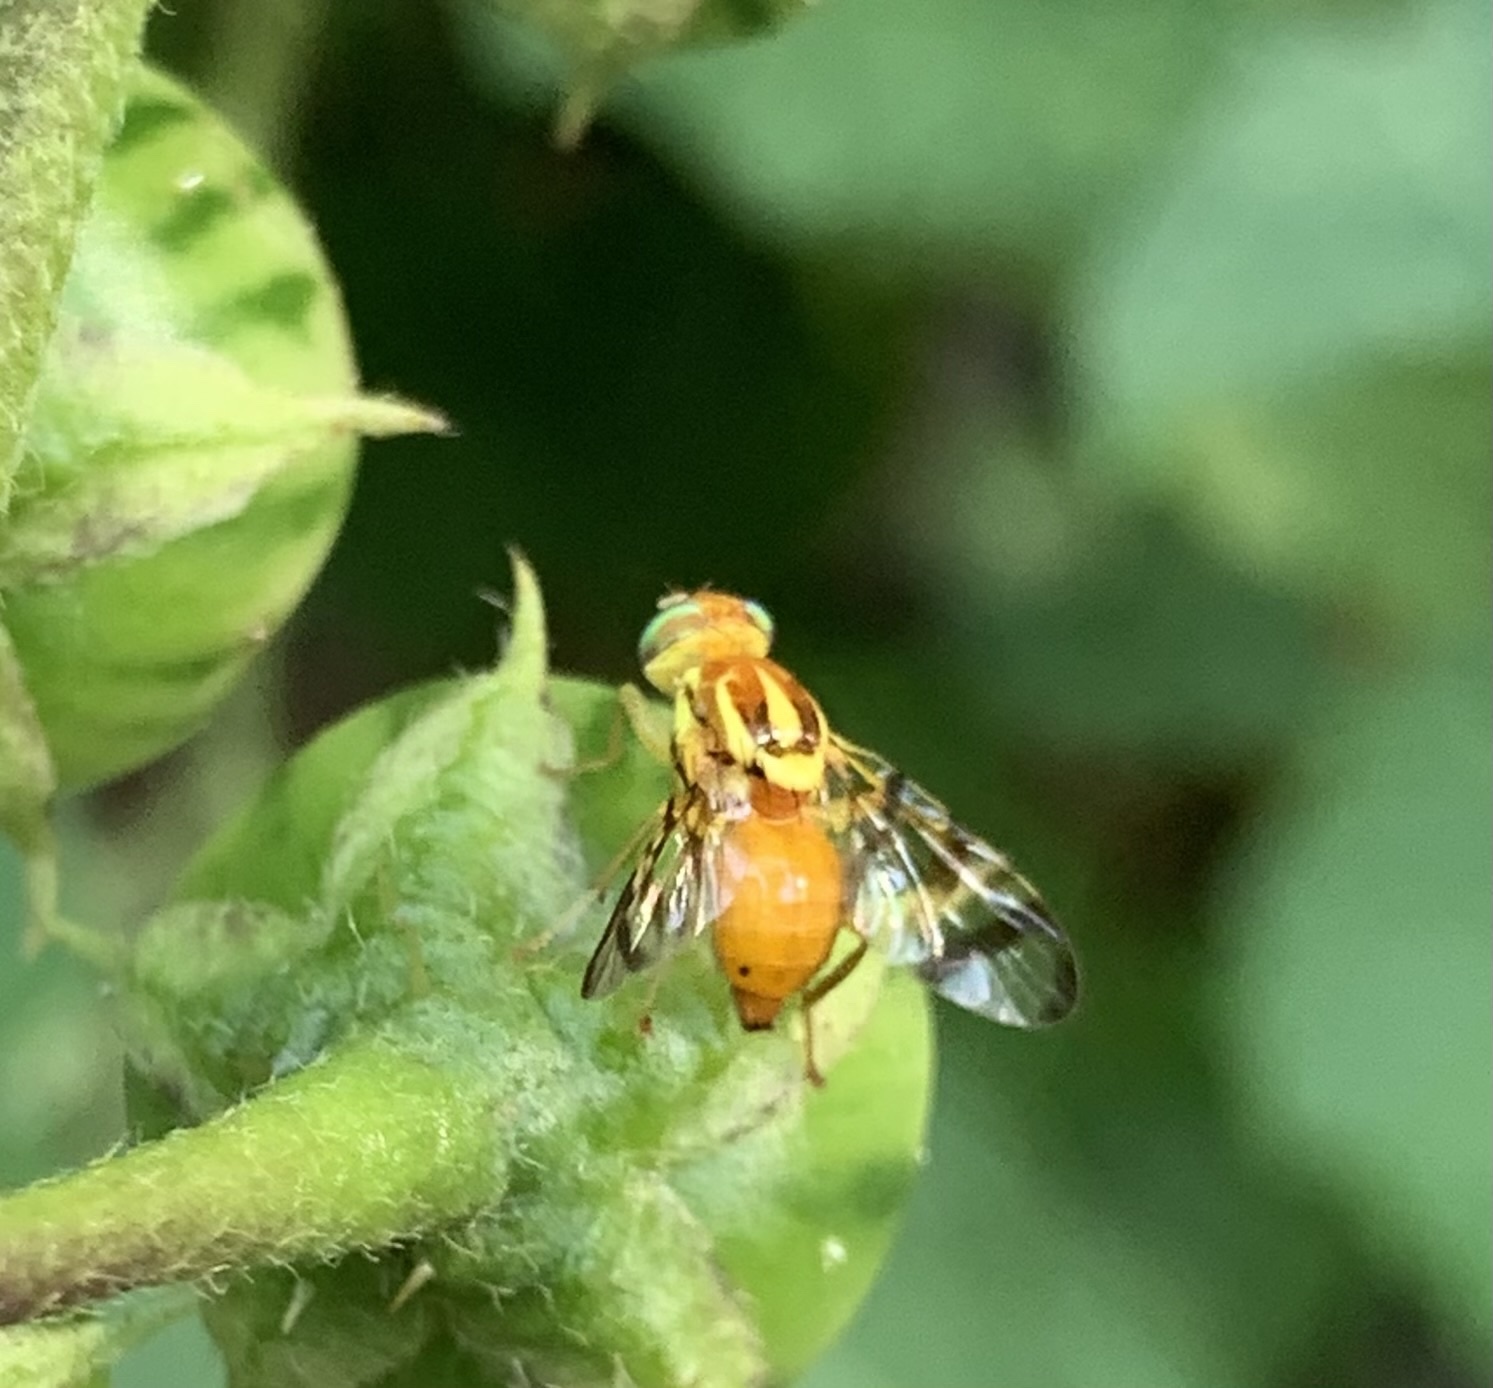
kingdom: Animalia
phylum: Arthropoda
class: Insecta
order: Diptera
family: Tephritidae
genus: Zonosemata
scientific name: Zonosemata electa
